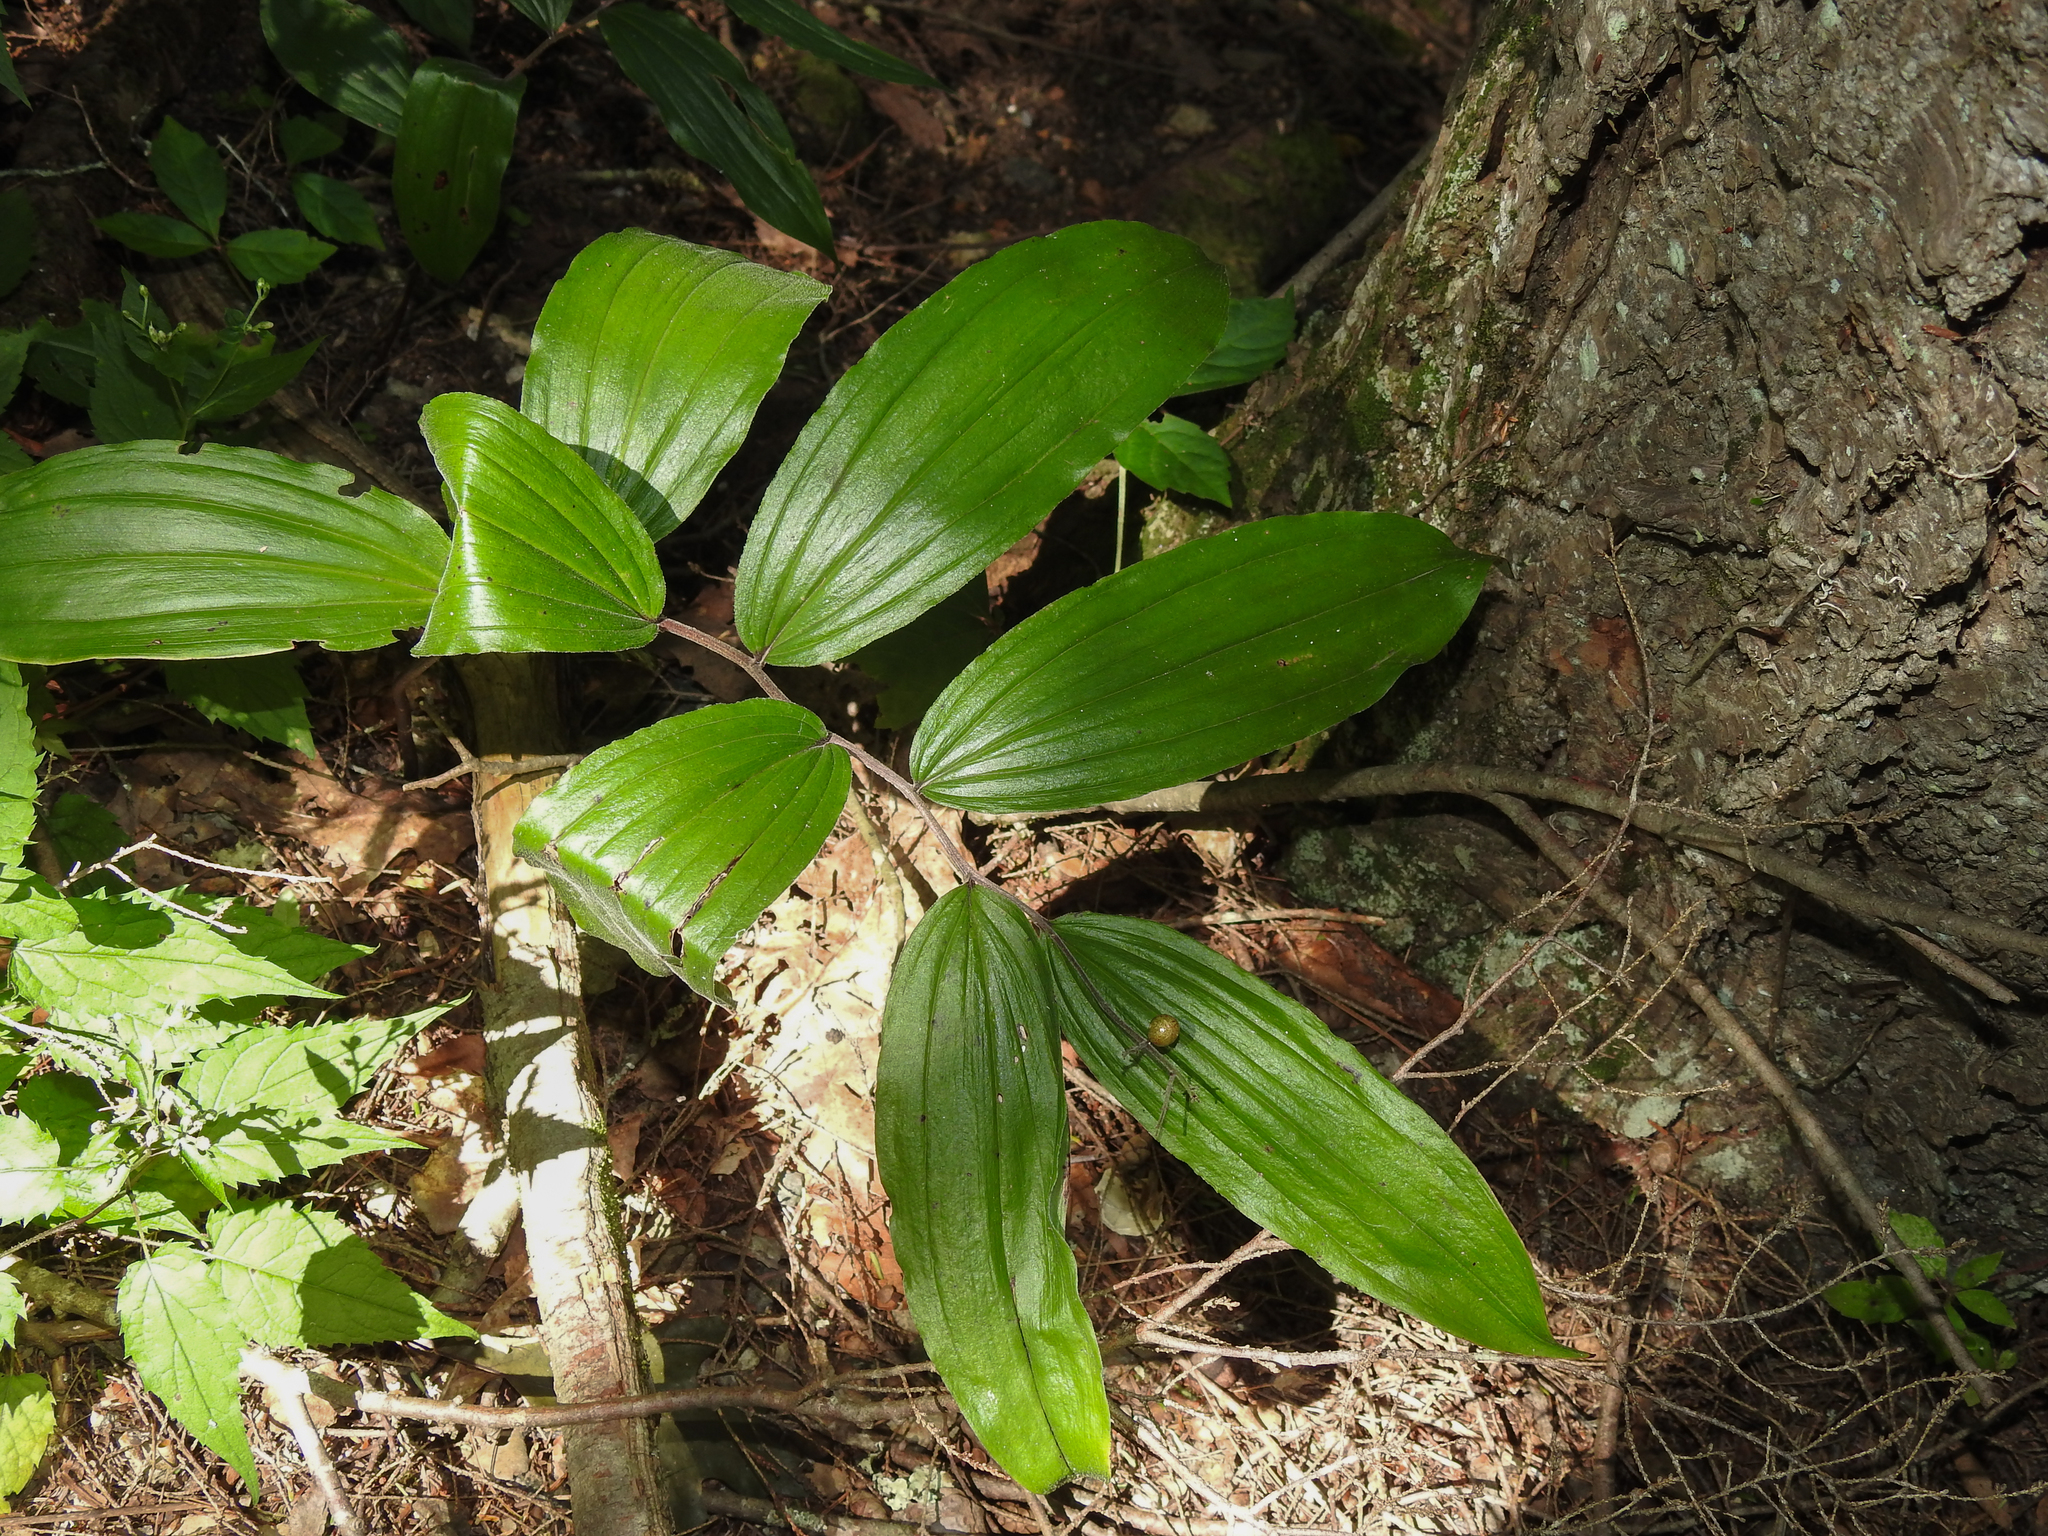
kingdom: Plantae
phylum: Tracheophyta
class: Liliopsida
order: Asparagales
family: Asparagaceae
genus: Maianthemum
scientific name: Maianthemum racemosum
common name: False spikenard
